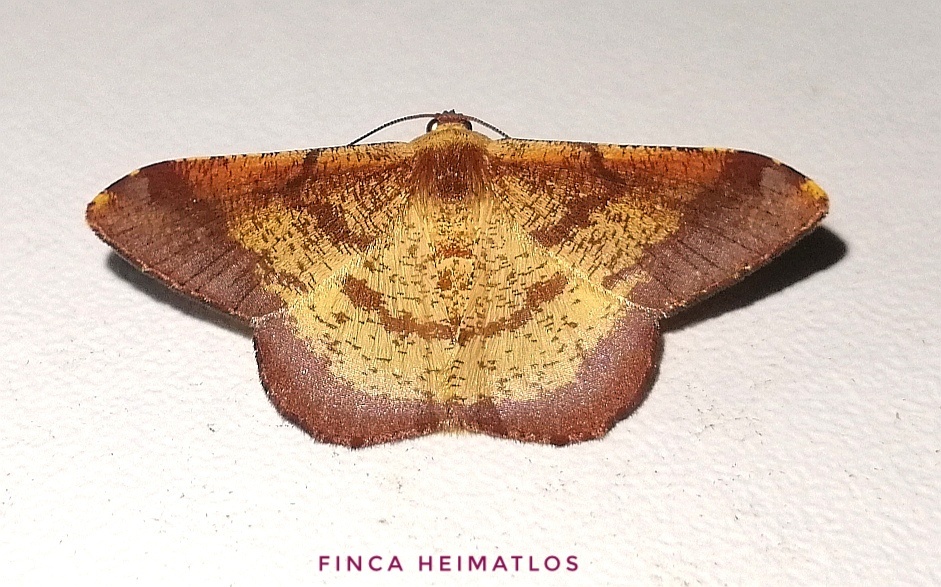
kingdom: Animalia
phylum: Arthropoda
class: Insecta
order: Lepidoptera
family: Geometridae
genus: Pyrinia
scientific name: Pyrinia agonisaria
